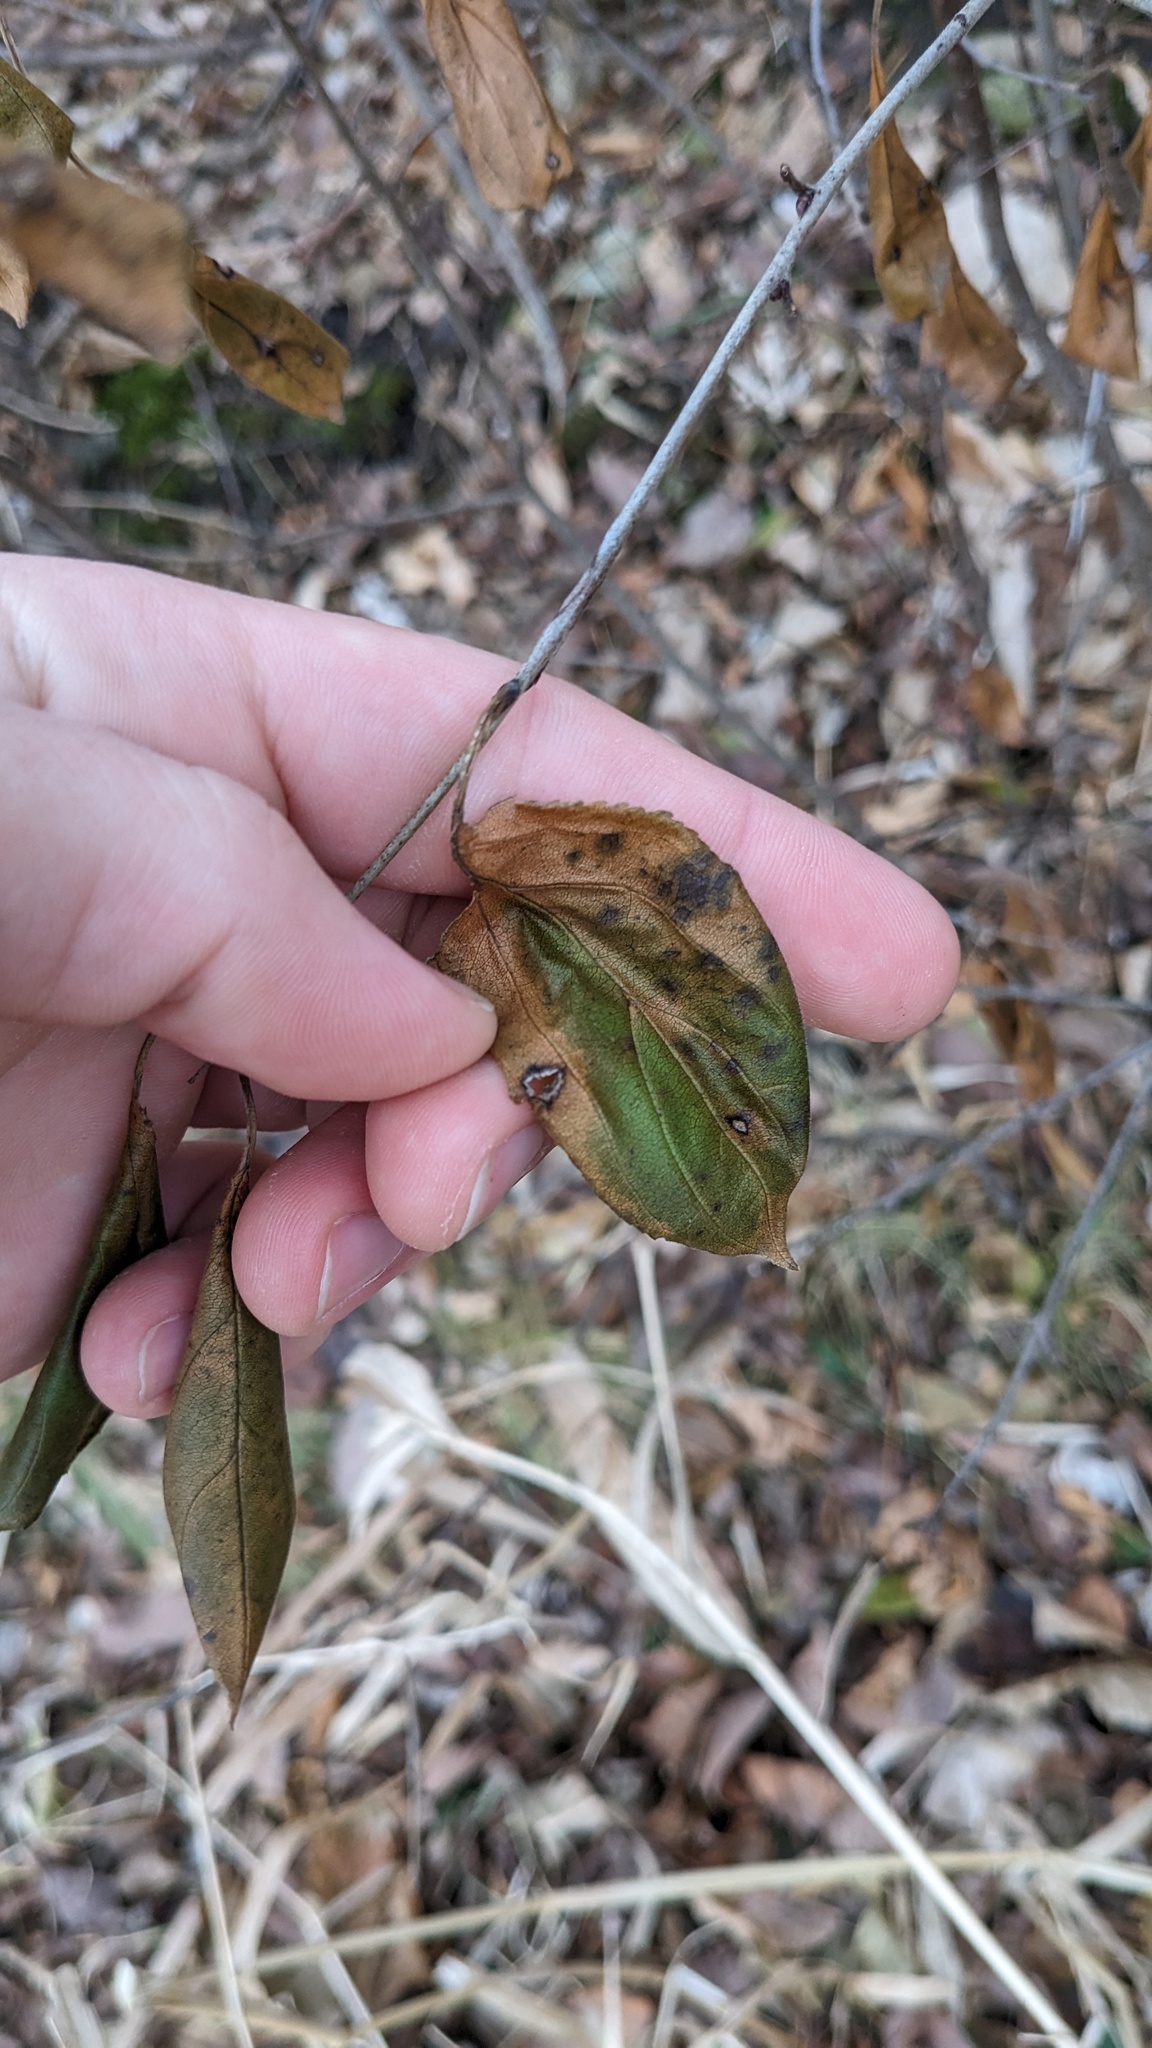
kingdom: Plantae
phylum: Tracheophyta
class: Magnoliopsida
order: Rosales
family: Rhamnaceae
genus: Rhamnus
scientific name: Rhamnus cathartica
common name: Common buckthorn
